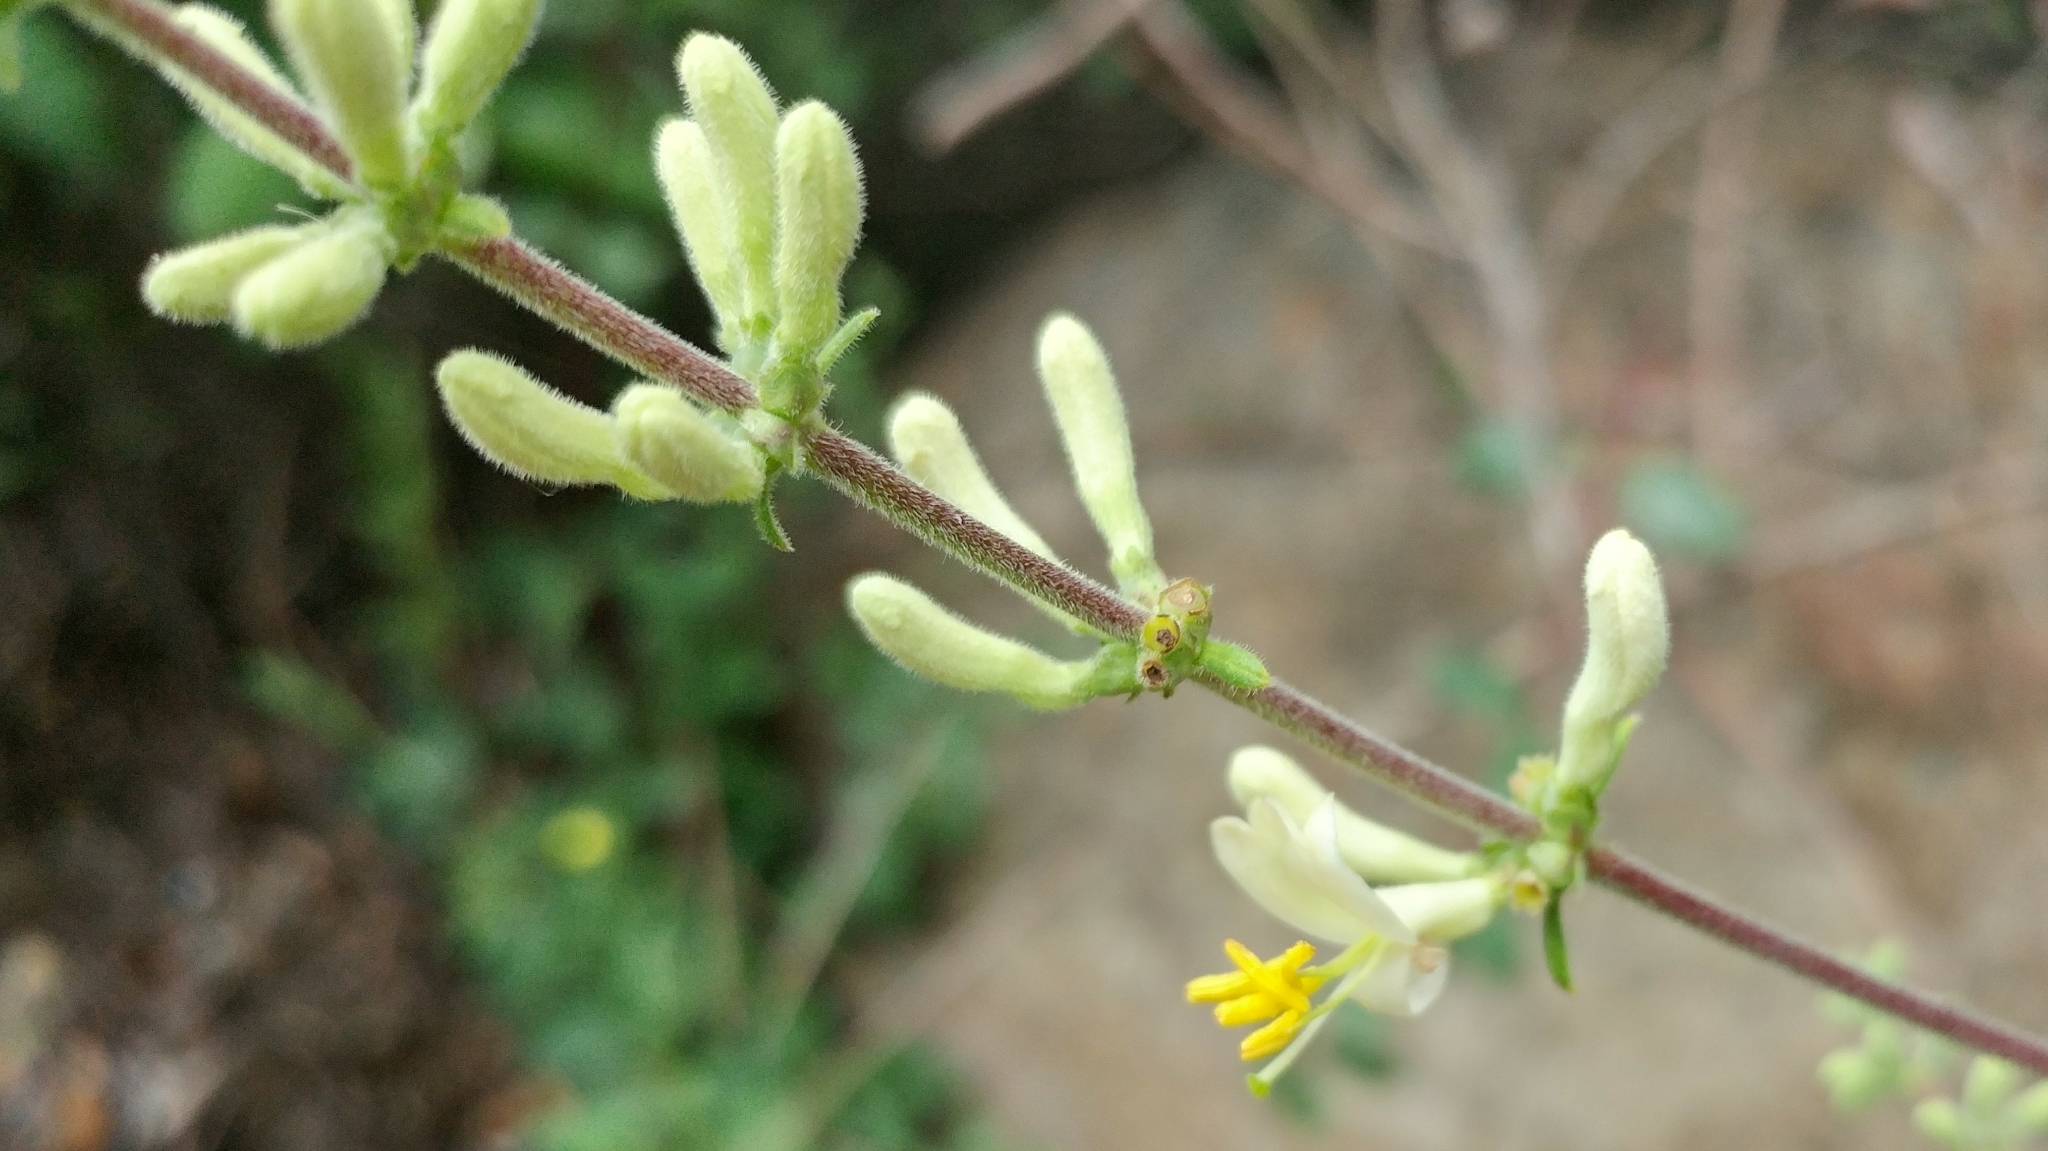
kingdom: Plantae
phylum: Tracheophyta
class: Magnoliopsida
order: Dipsacales
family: Caprifoliaceae
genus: Lonicera
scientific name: Lonicera subspicata
